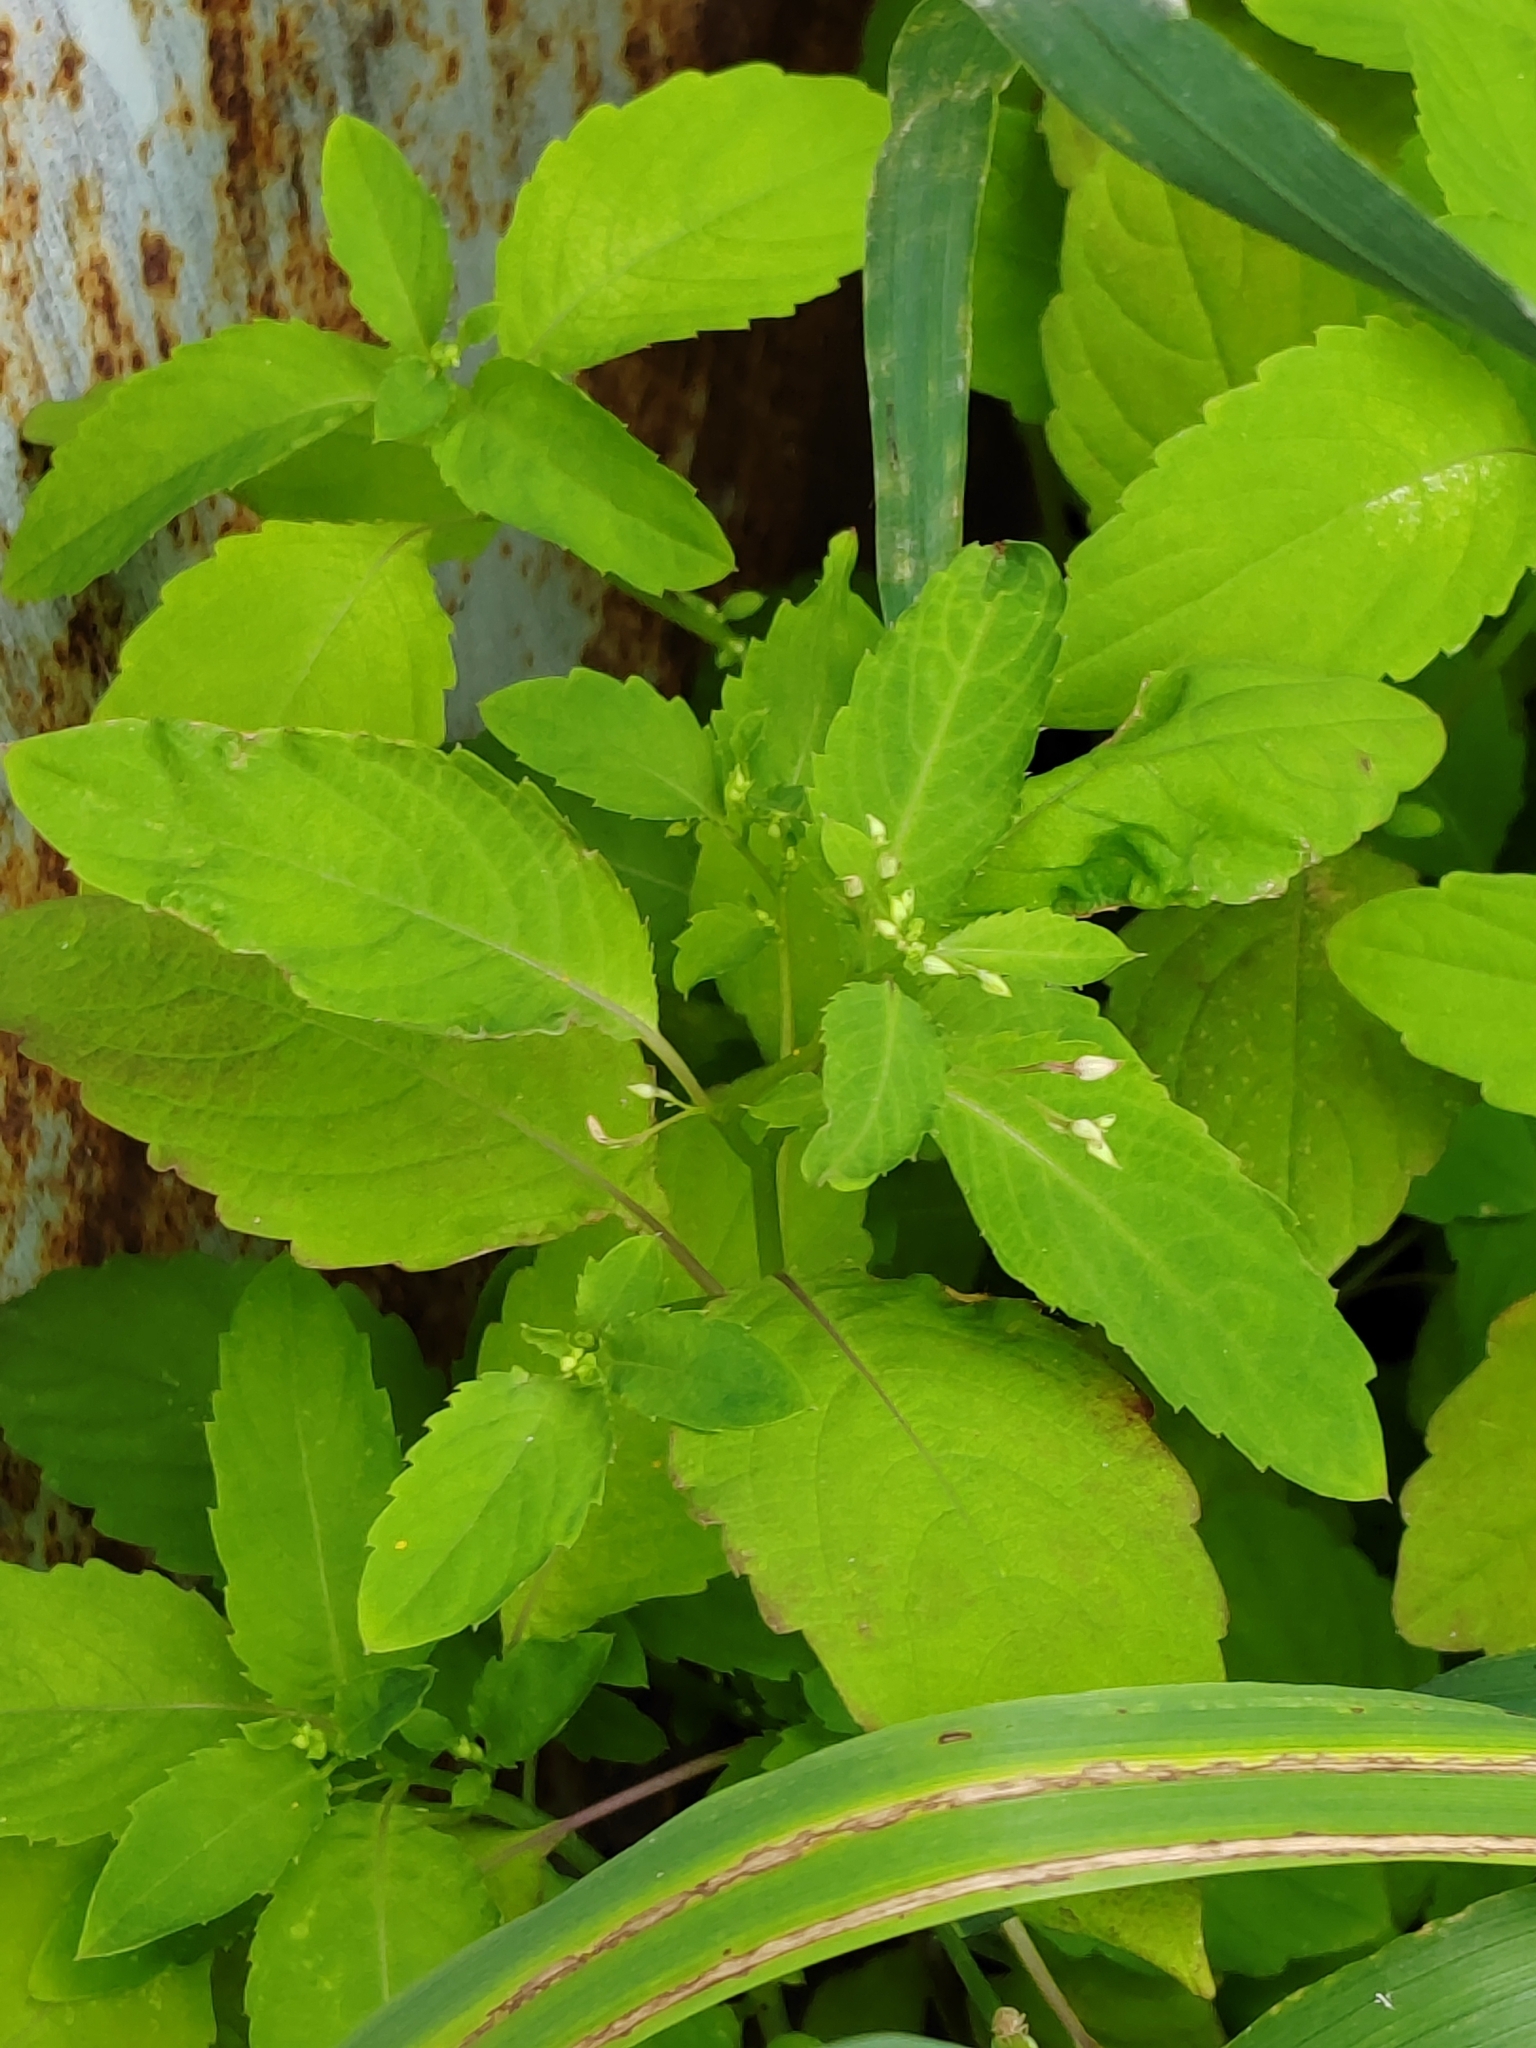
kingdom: Plantae
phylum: Tracheophyta
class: Magnoliopsida
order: Ericales
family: Balsaminaceae
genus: Impatiens
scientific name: Impatiens noli-tangere
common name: Touch-me-not balsam
